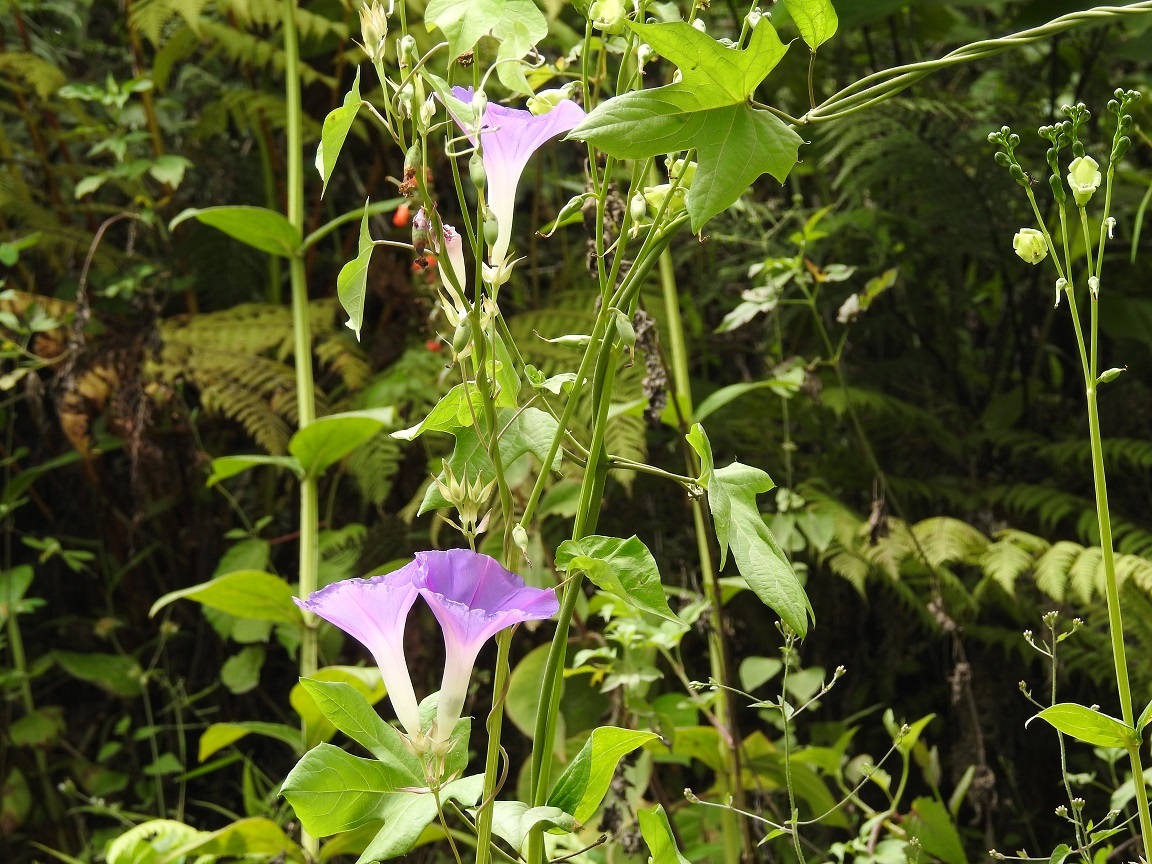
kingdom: Plantae
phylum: Tracheophyta
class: Magnoliopsida
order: Solanales
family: Convolvulaceae
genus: Ipomoea
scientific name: Ipomoea indica
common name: Blue dawnflower
